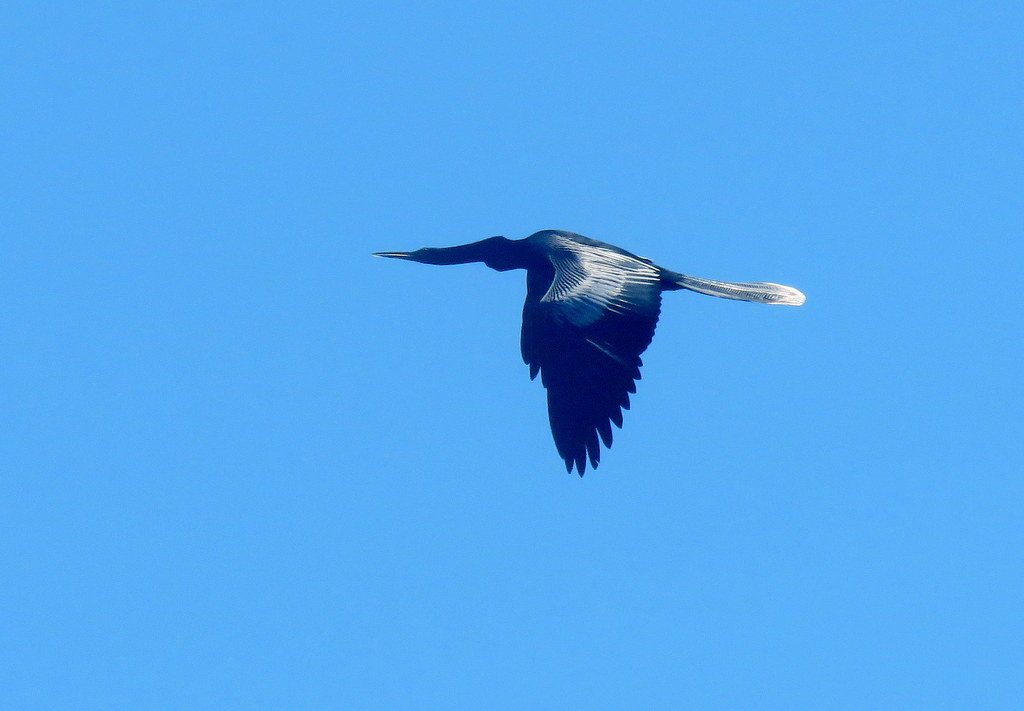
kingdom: Animalia
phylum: Chordata
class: Aves
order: Suliformes
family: Anhingidae
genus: Anhinga
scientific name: Anhinga anhinga
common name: Anhinga
